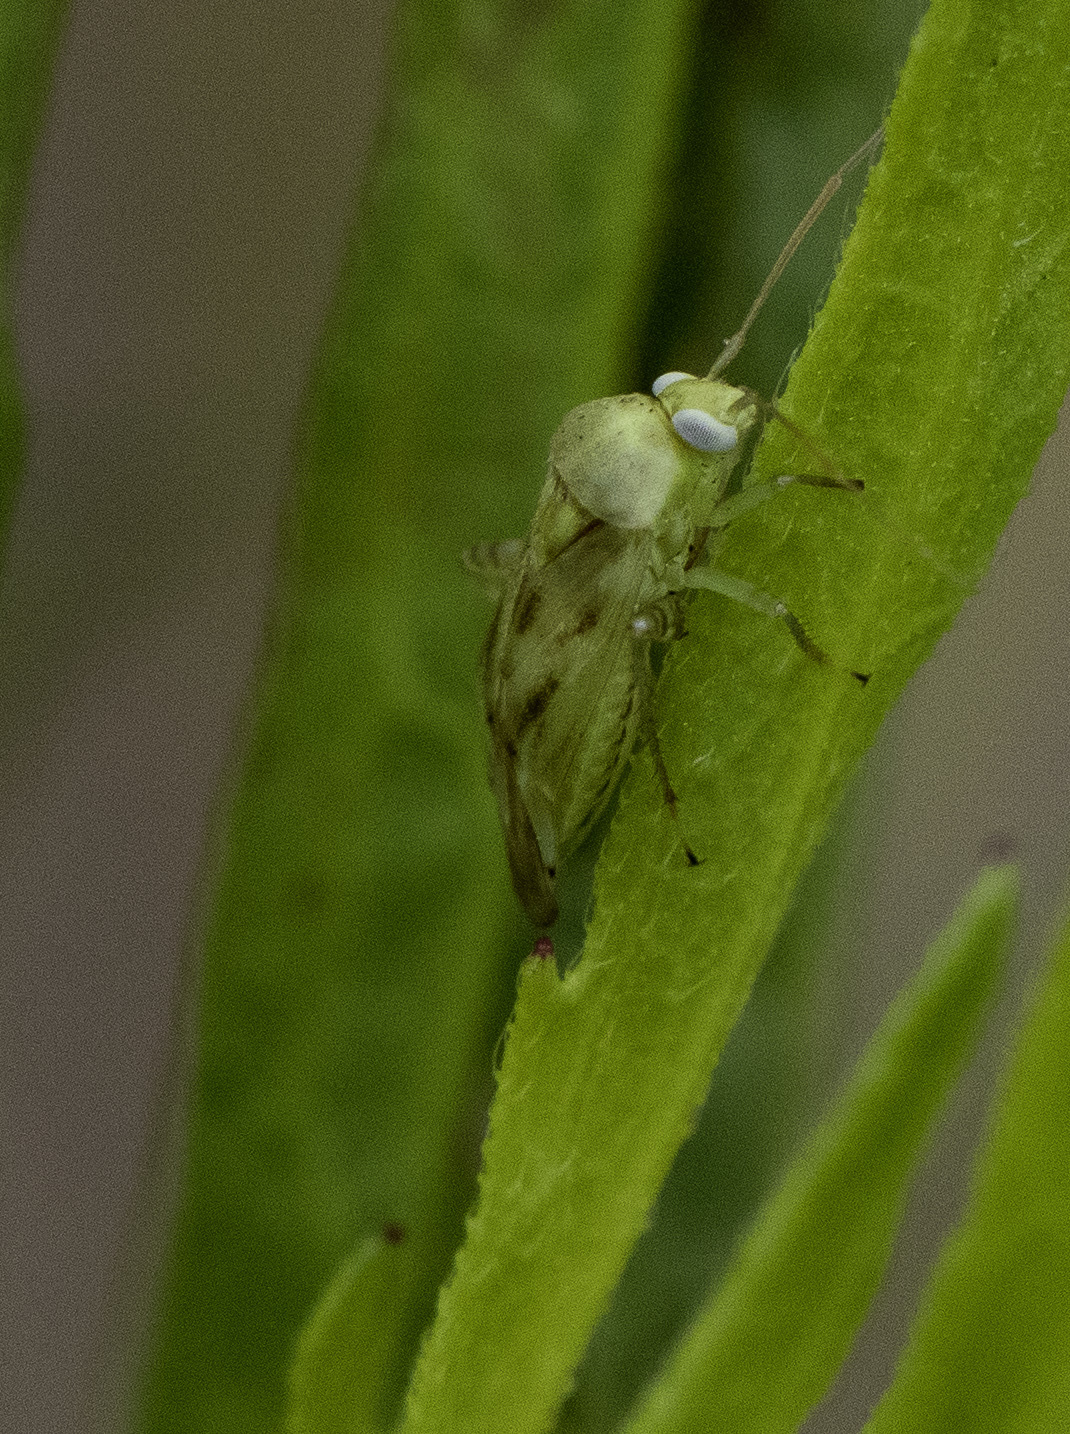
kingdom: Animalia
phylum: Arthropoda
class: Insecta
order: Hemiptera
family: Miridae
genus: Taylorilygus
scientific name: Taylorilygus apicalis
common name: Plant bug
